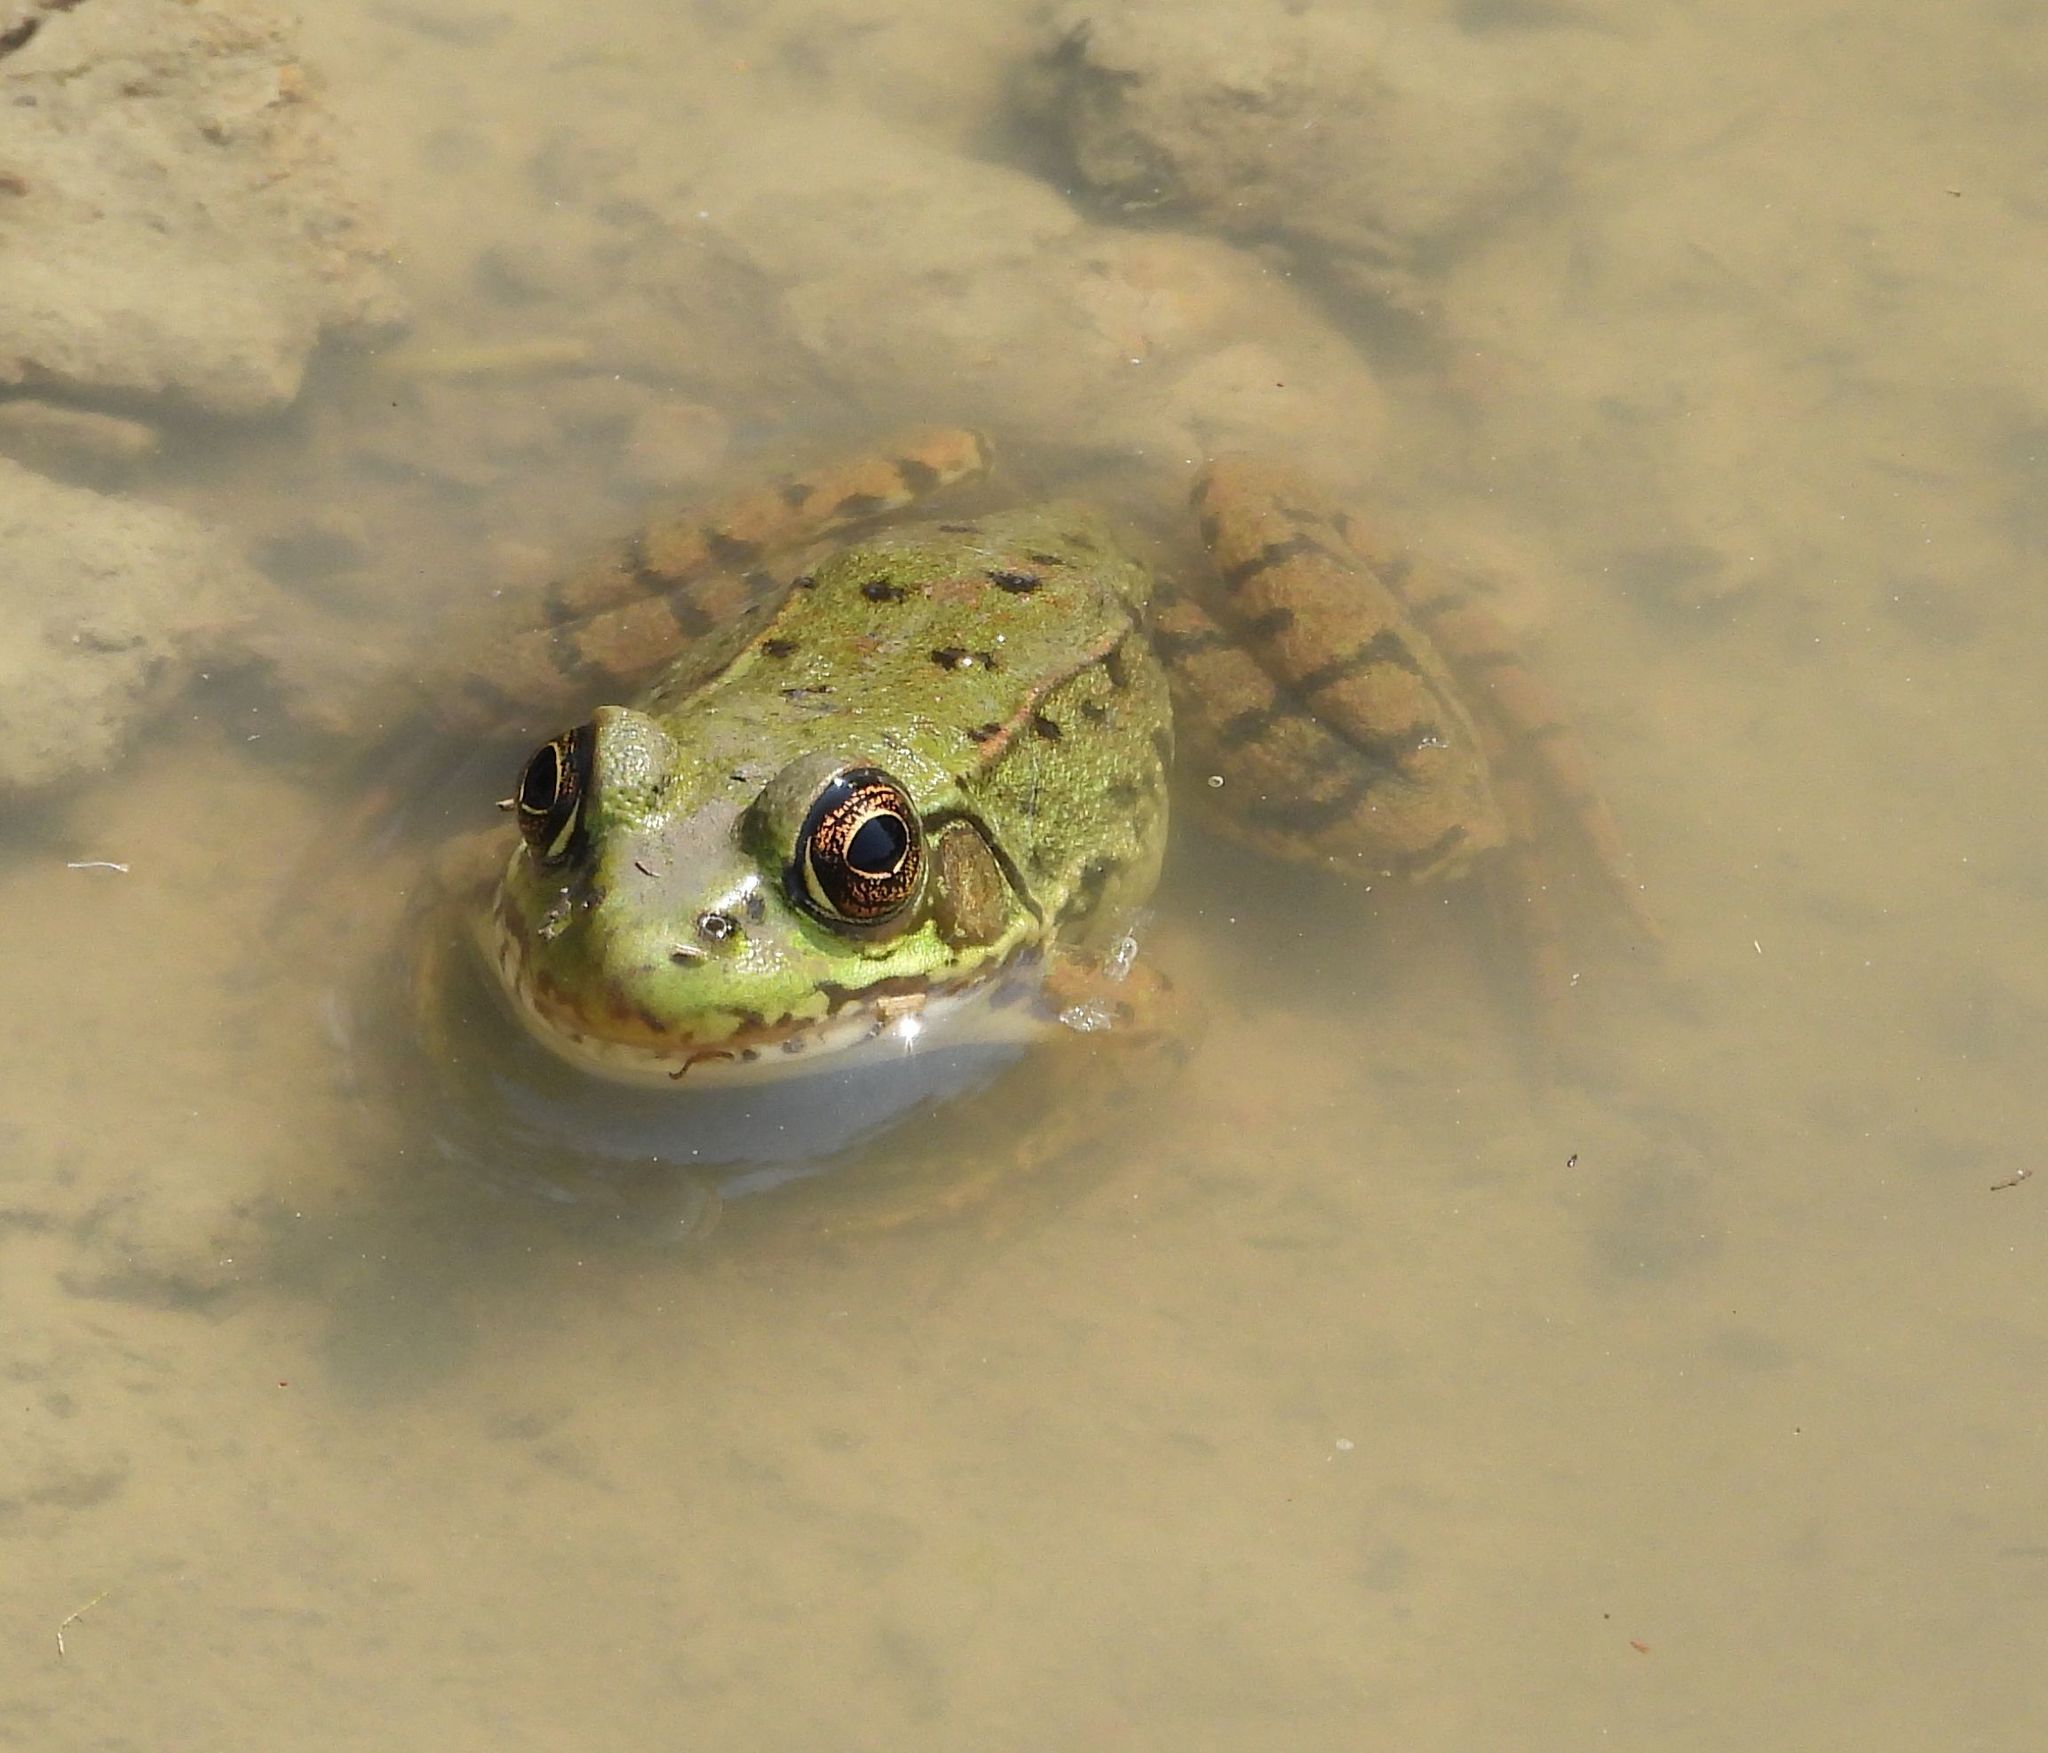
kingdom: Animalia
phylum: Chordata
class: Amphibia
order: Anura
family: Ranidae
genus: Lithobates
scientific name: Lithobates clamitans
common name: Green frog
